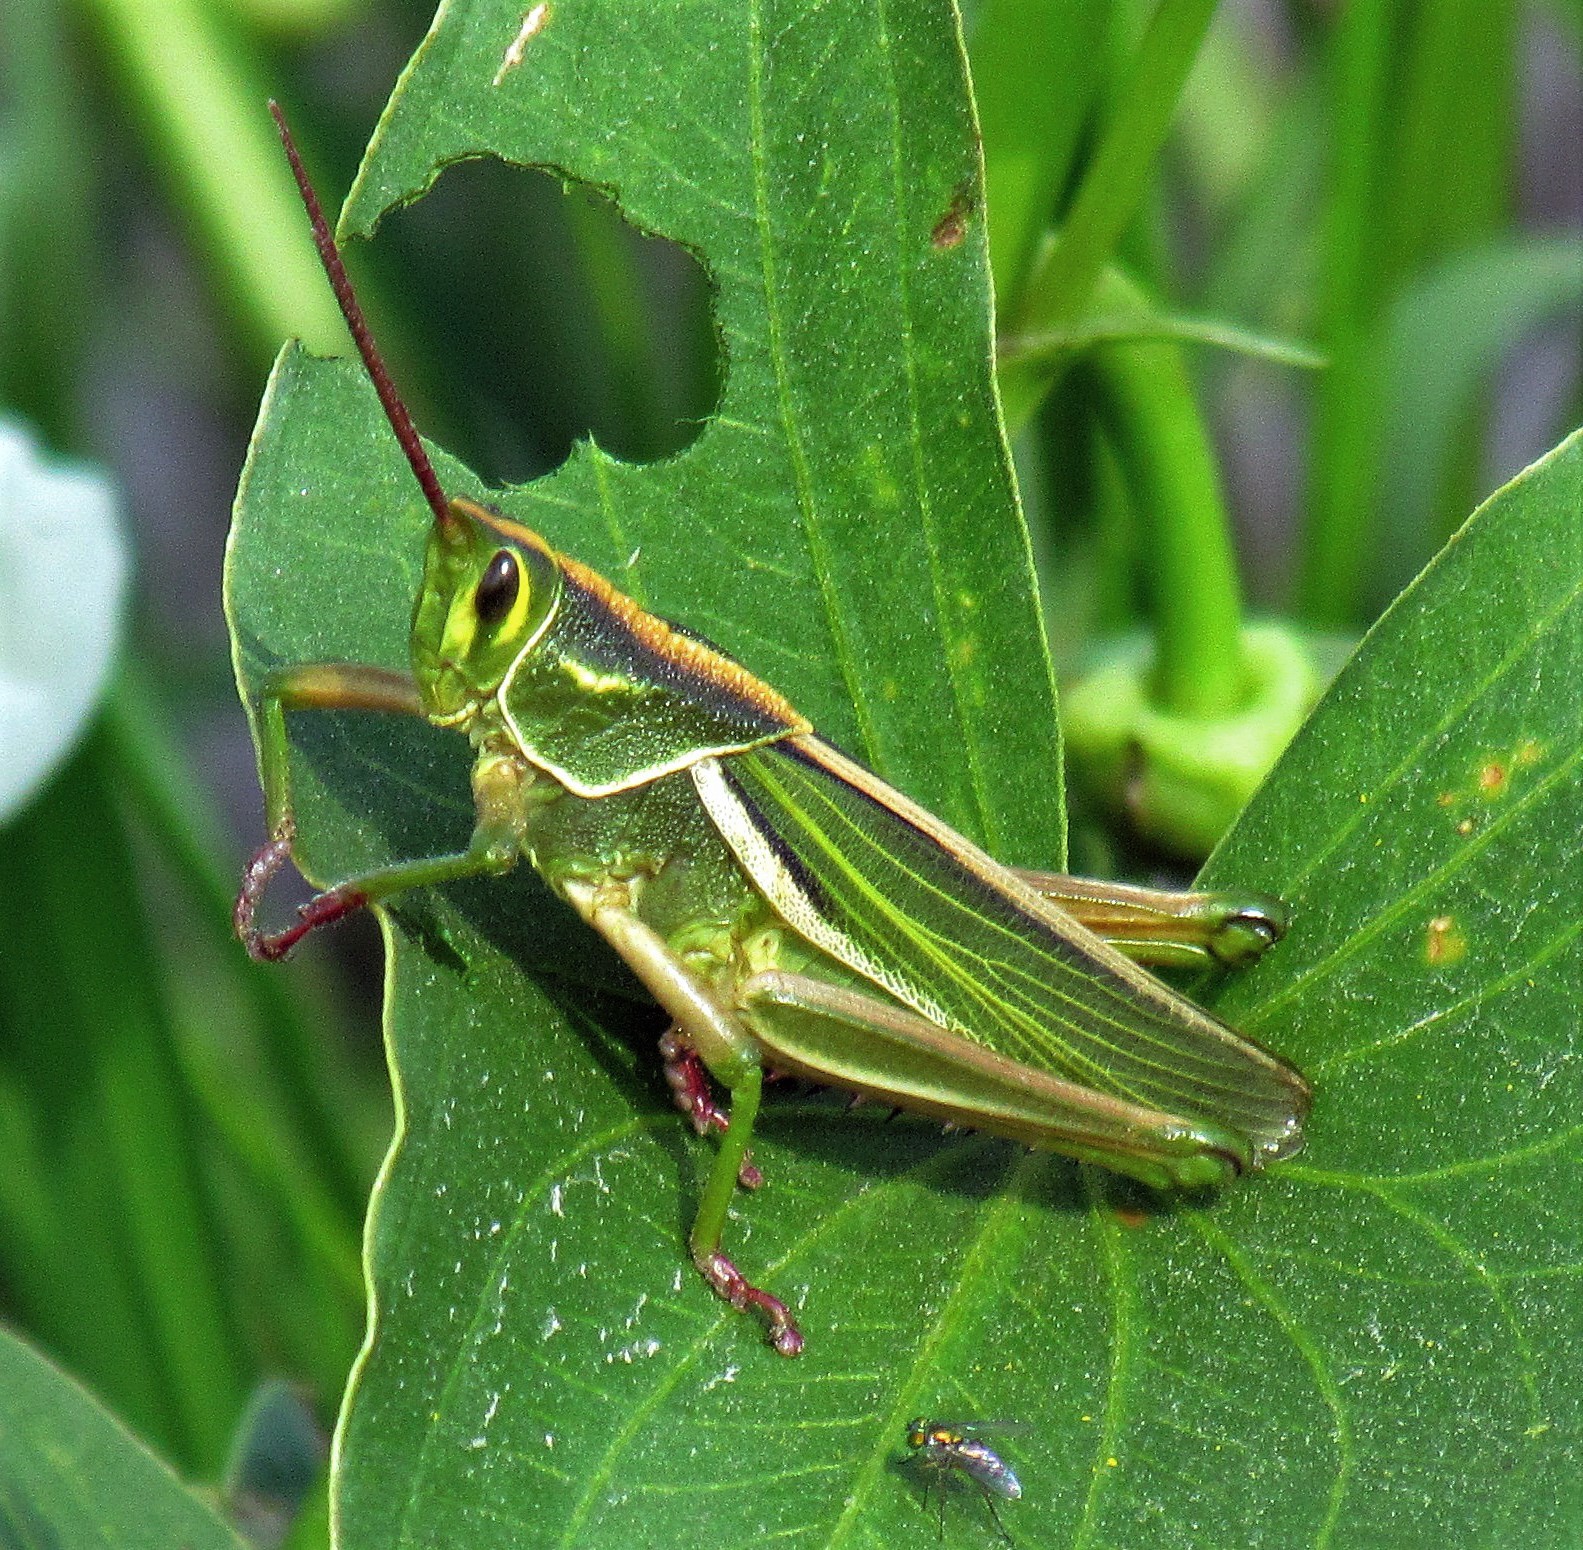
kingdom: Animalia
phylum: Arthropoda
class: Insecta
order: Orthoptera
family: Romaleidae
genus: Staleochlora
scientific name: Staleochlora viridicata
